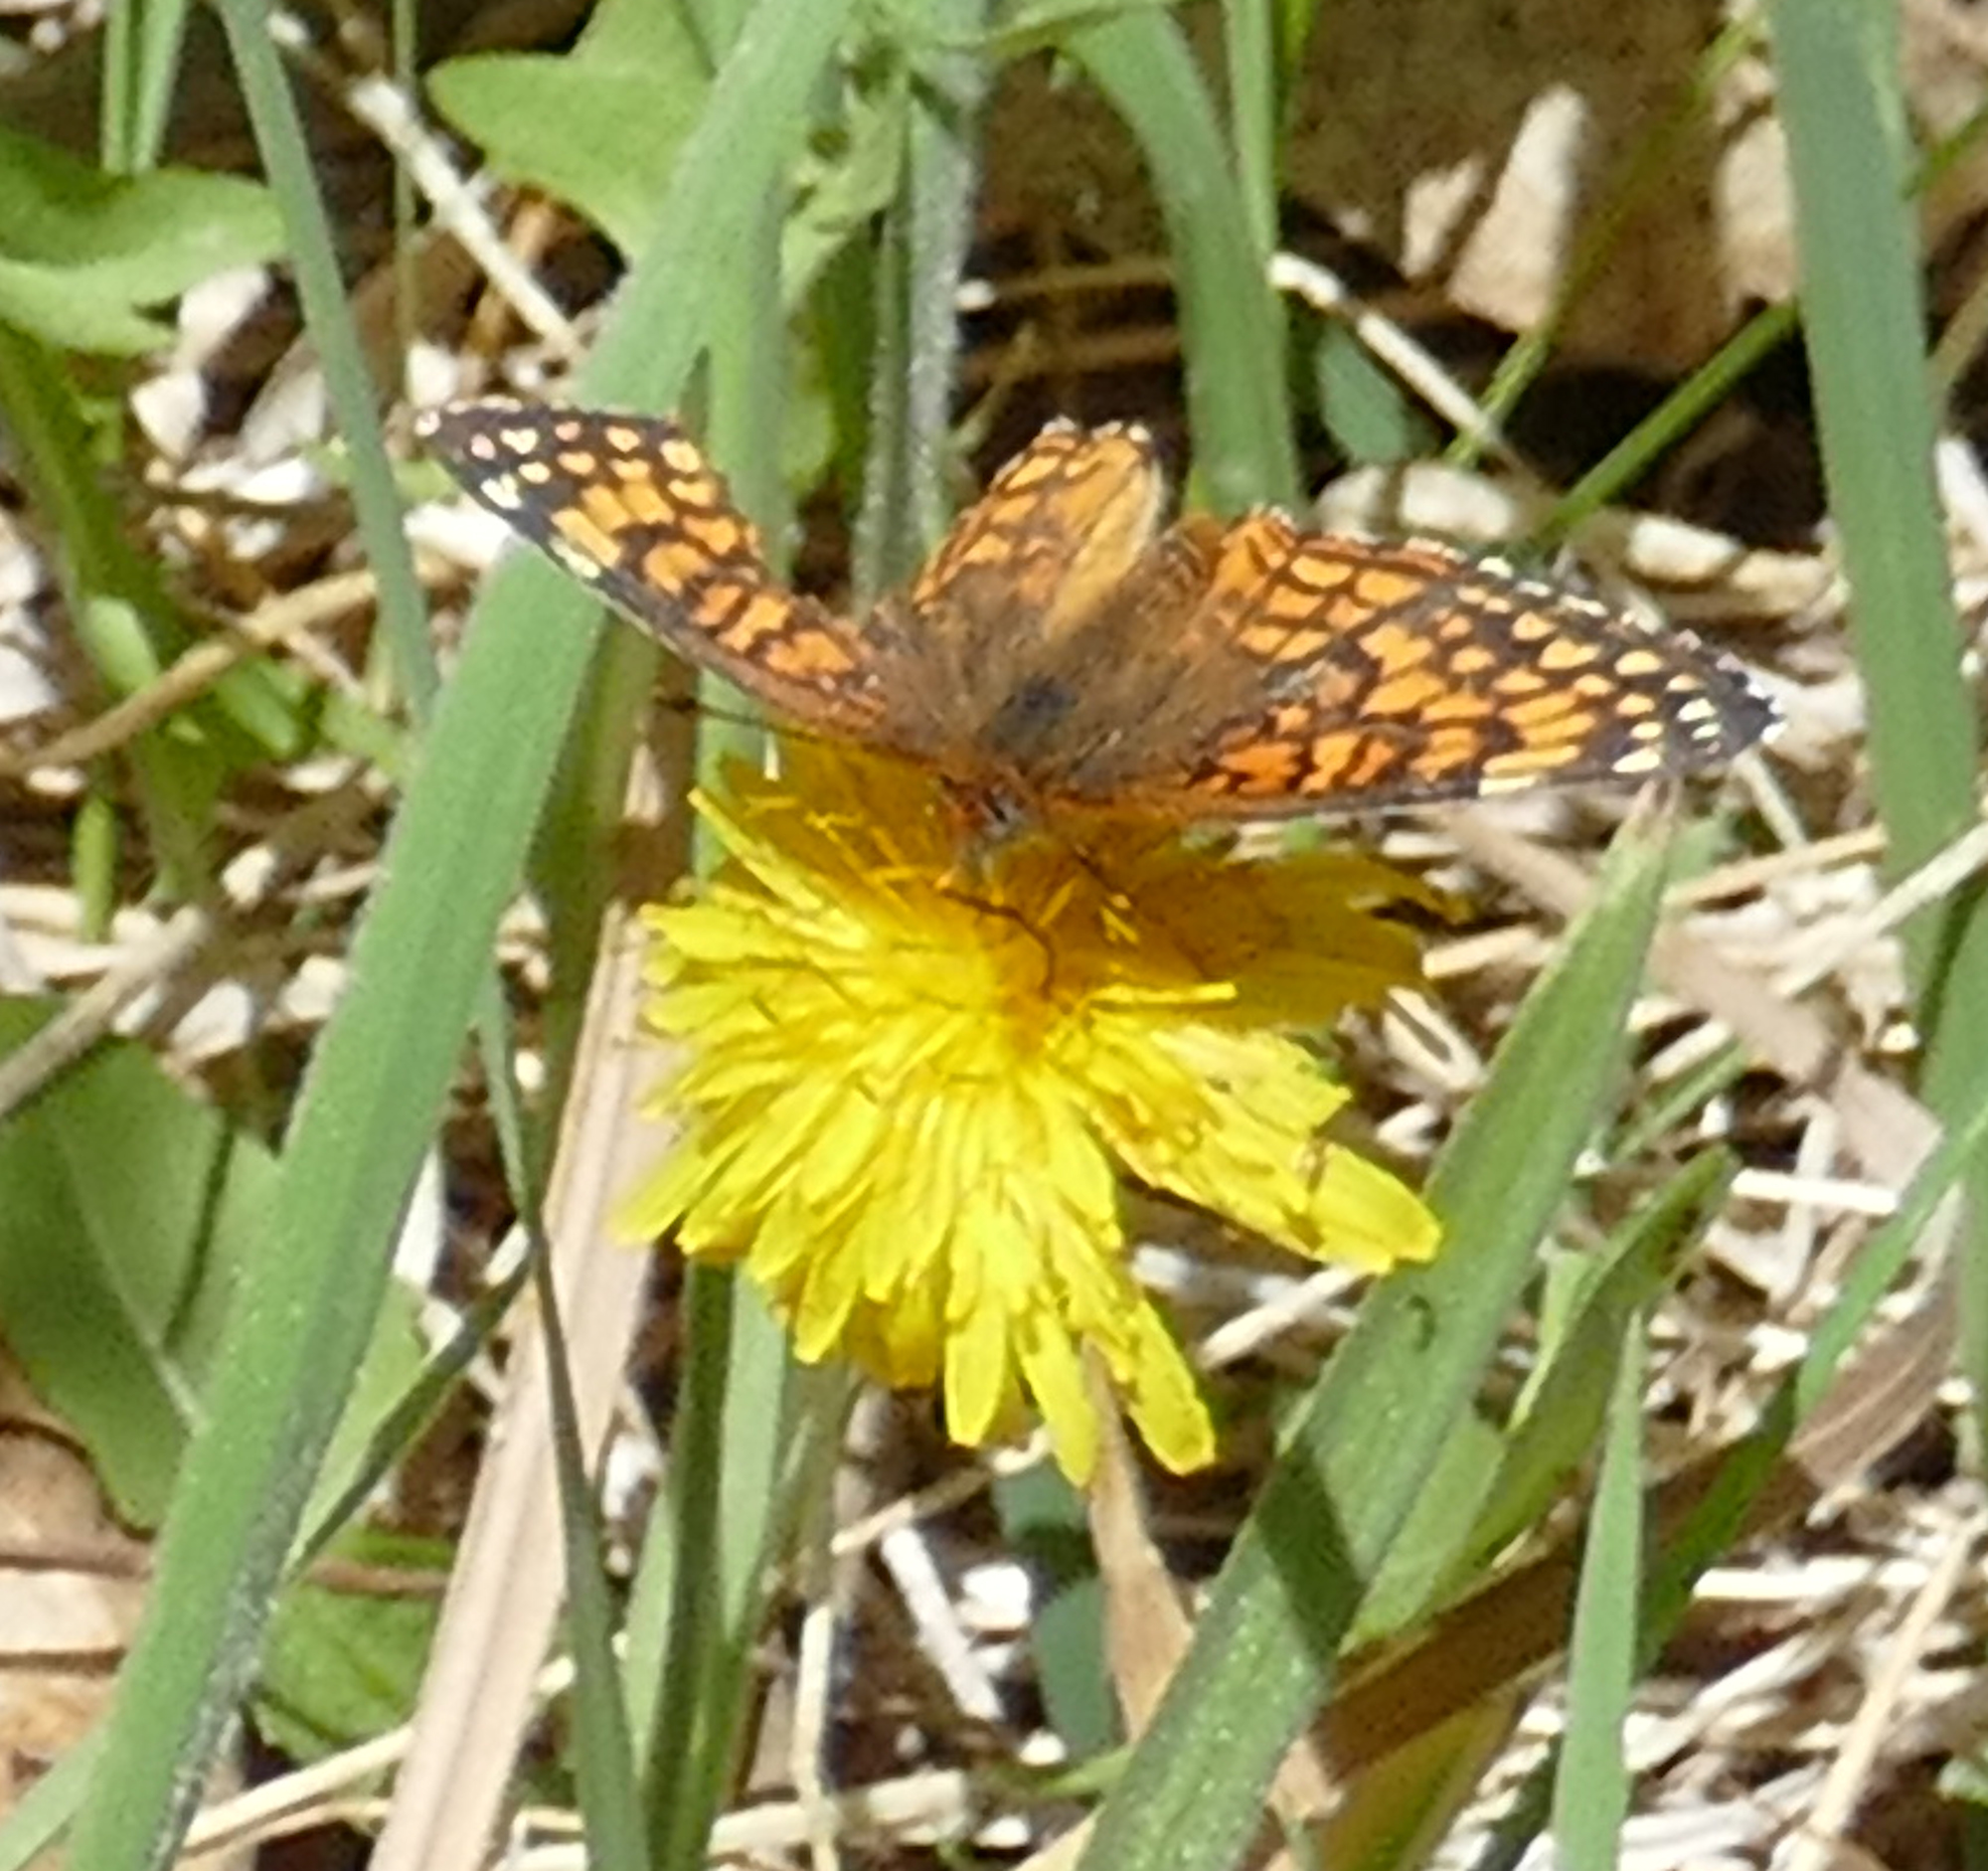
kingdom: Animalia
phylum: Arthropoda
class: Insecta
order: Lepidoptera
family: Nymphalidae
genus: Chlosyne
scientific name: Chlosyne acastus
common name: Sagebrush checkerspot
